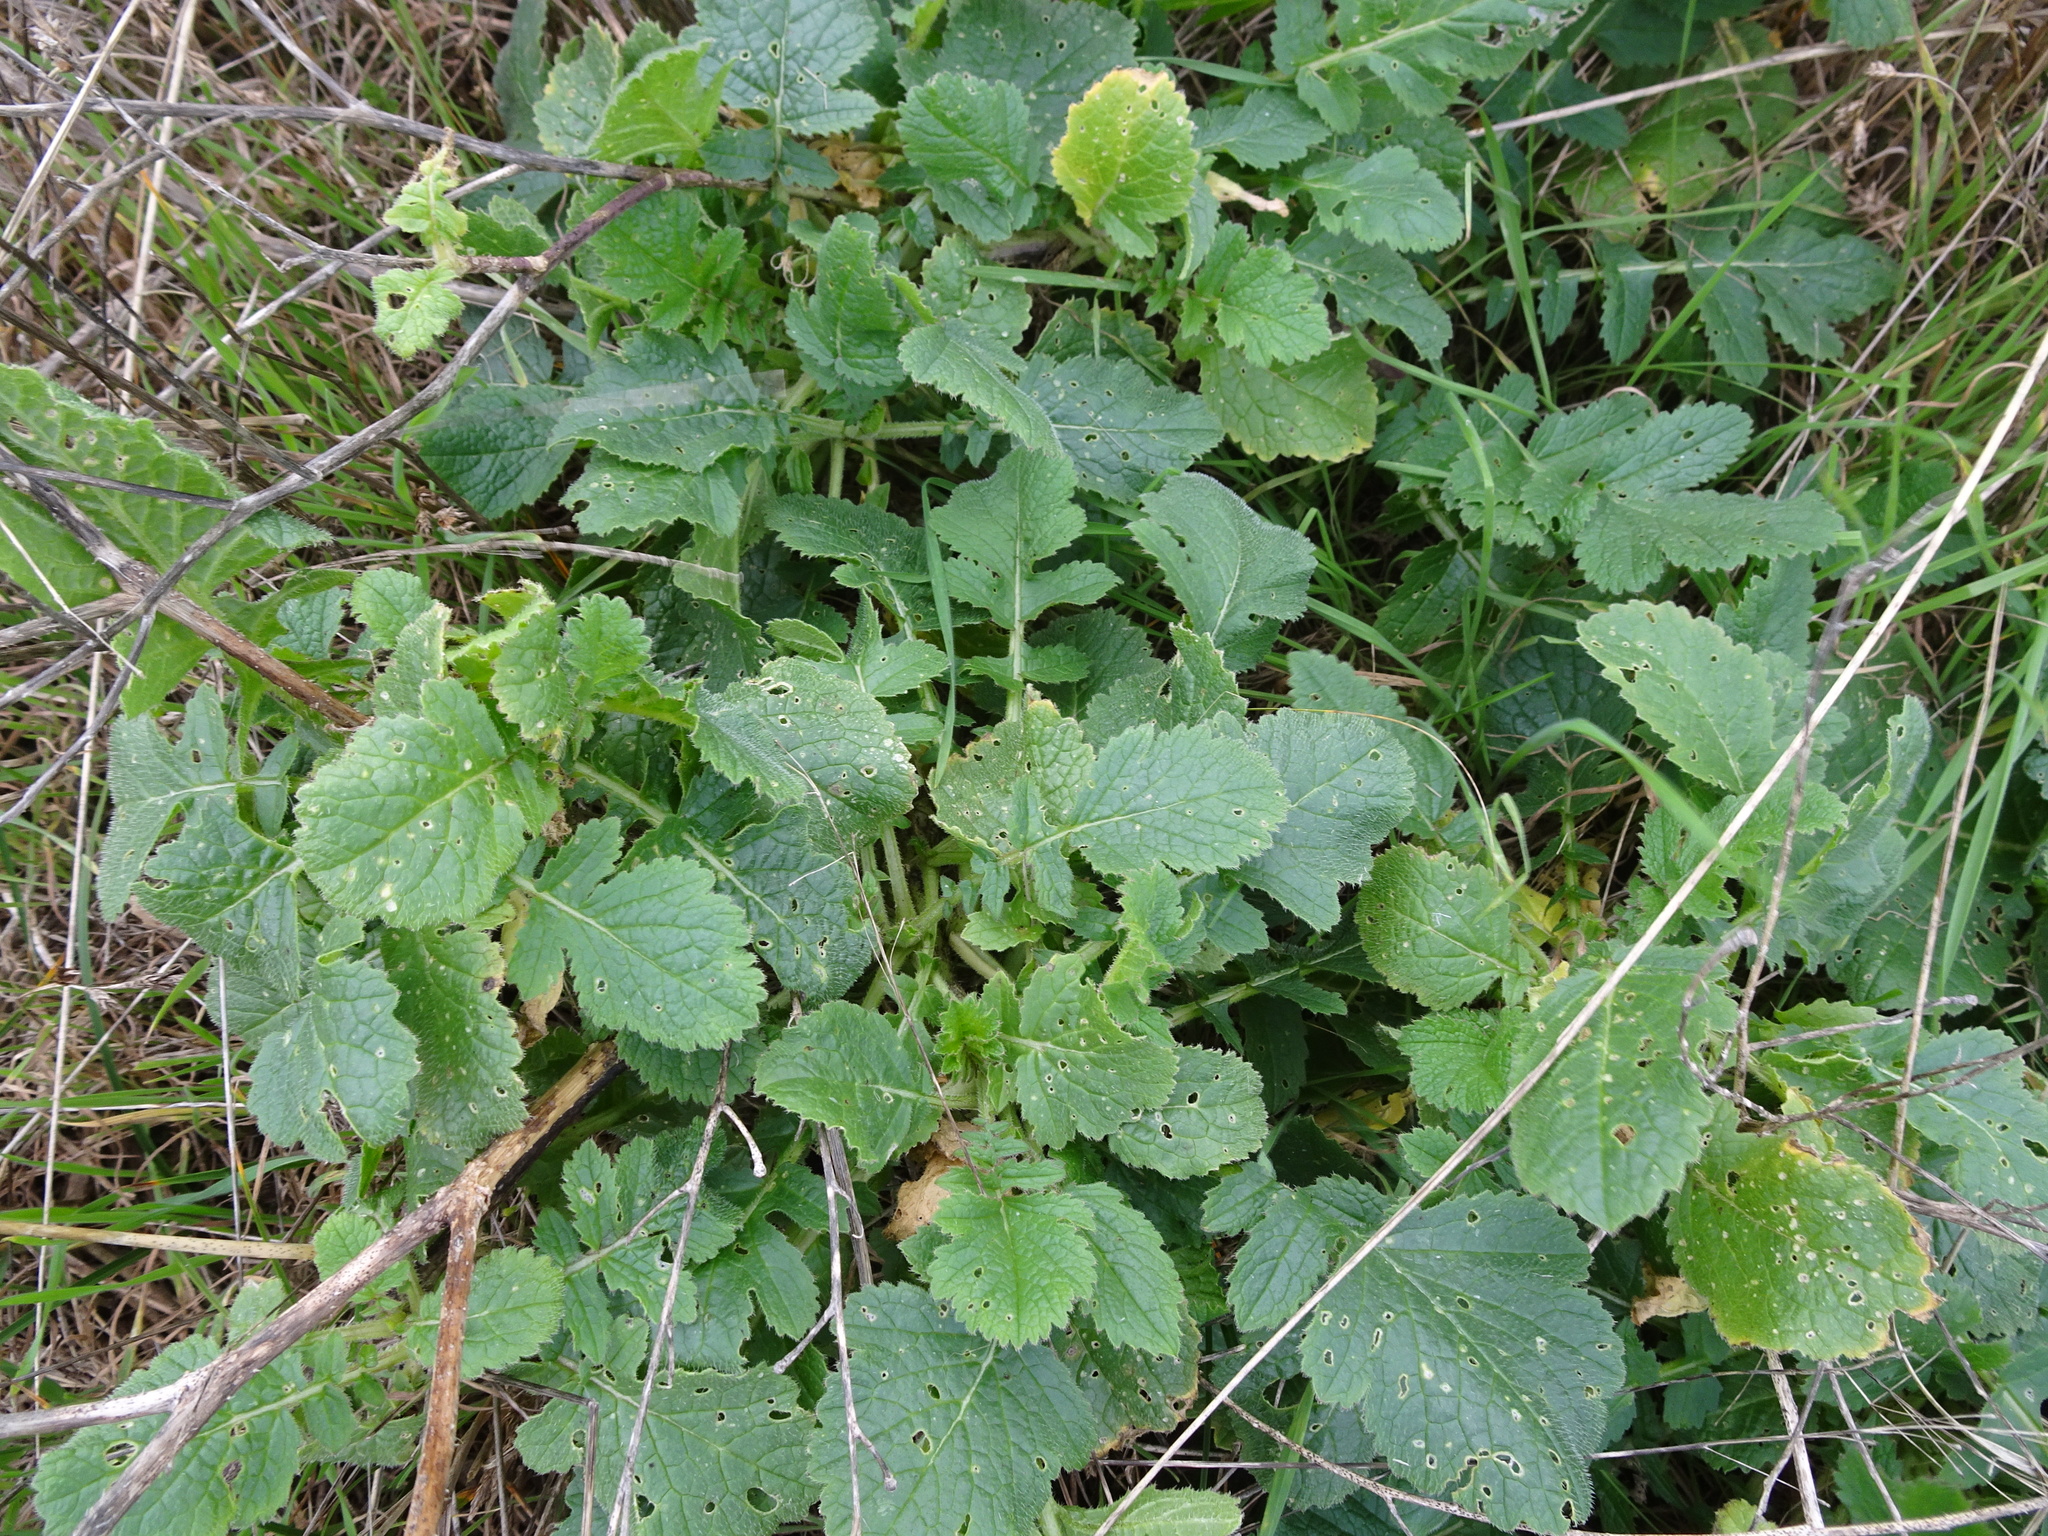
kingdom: Plantae
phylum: Tracheophyta
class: Magnoliopsida
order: Brassicales
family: Brassicaceae
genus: Raphanus
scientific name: Raphanus raphanistrum
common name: Wild radish
